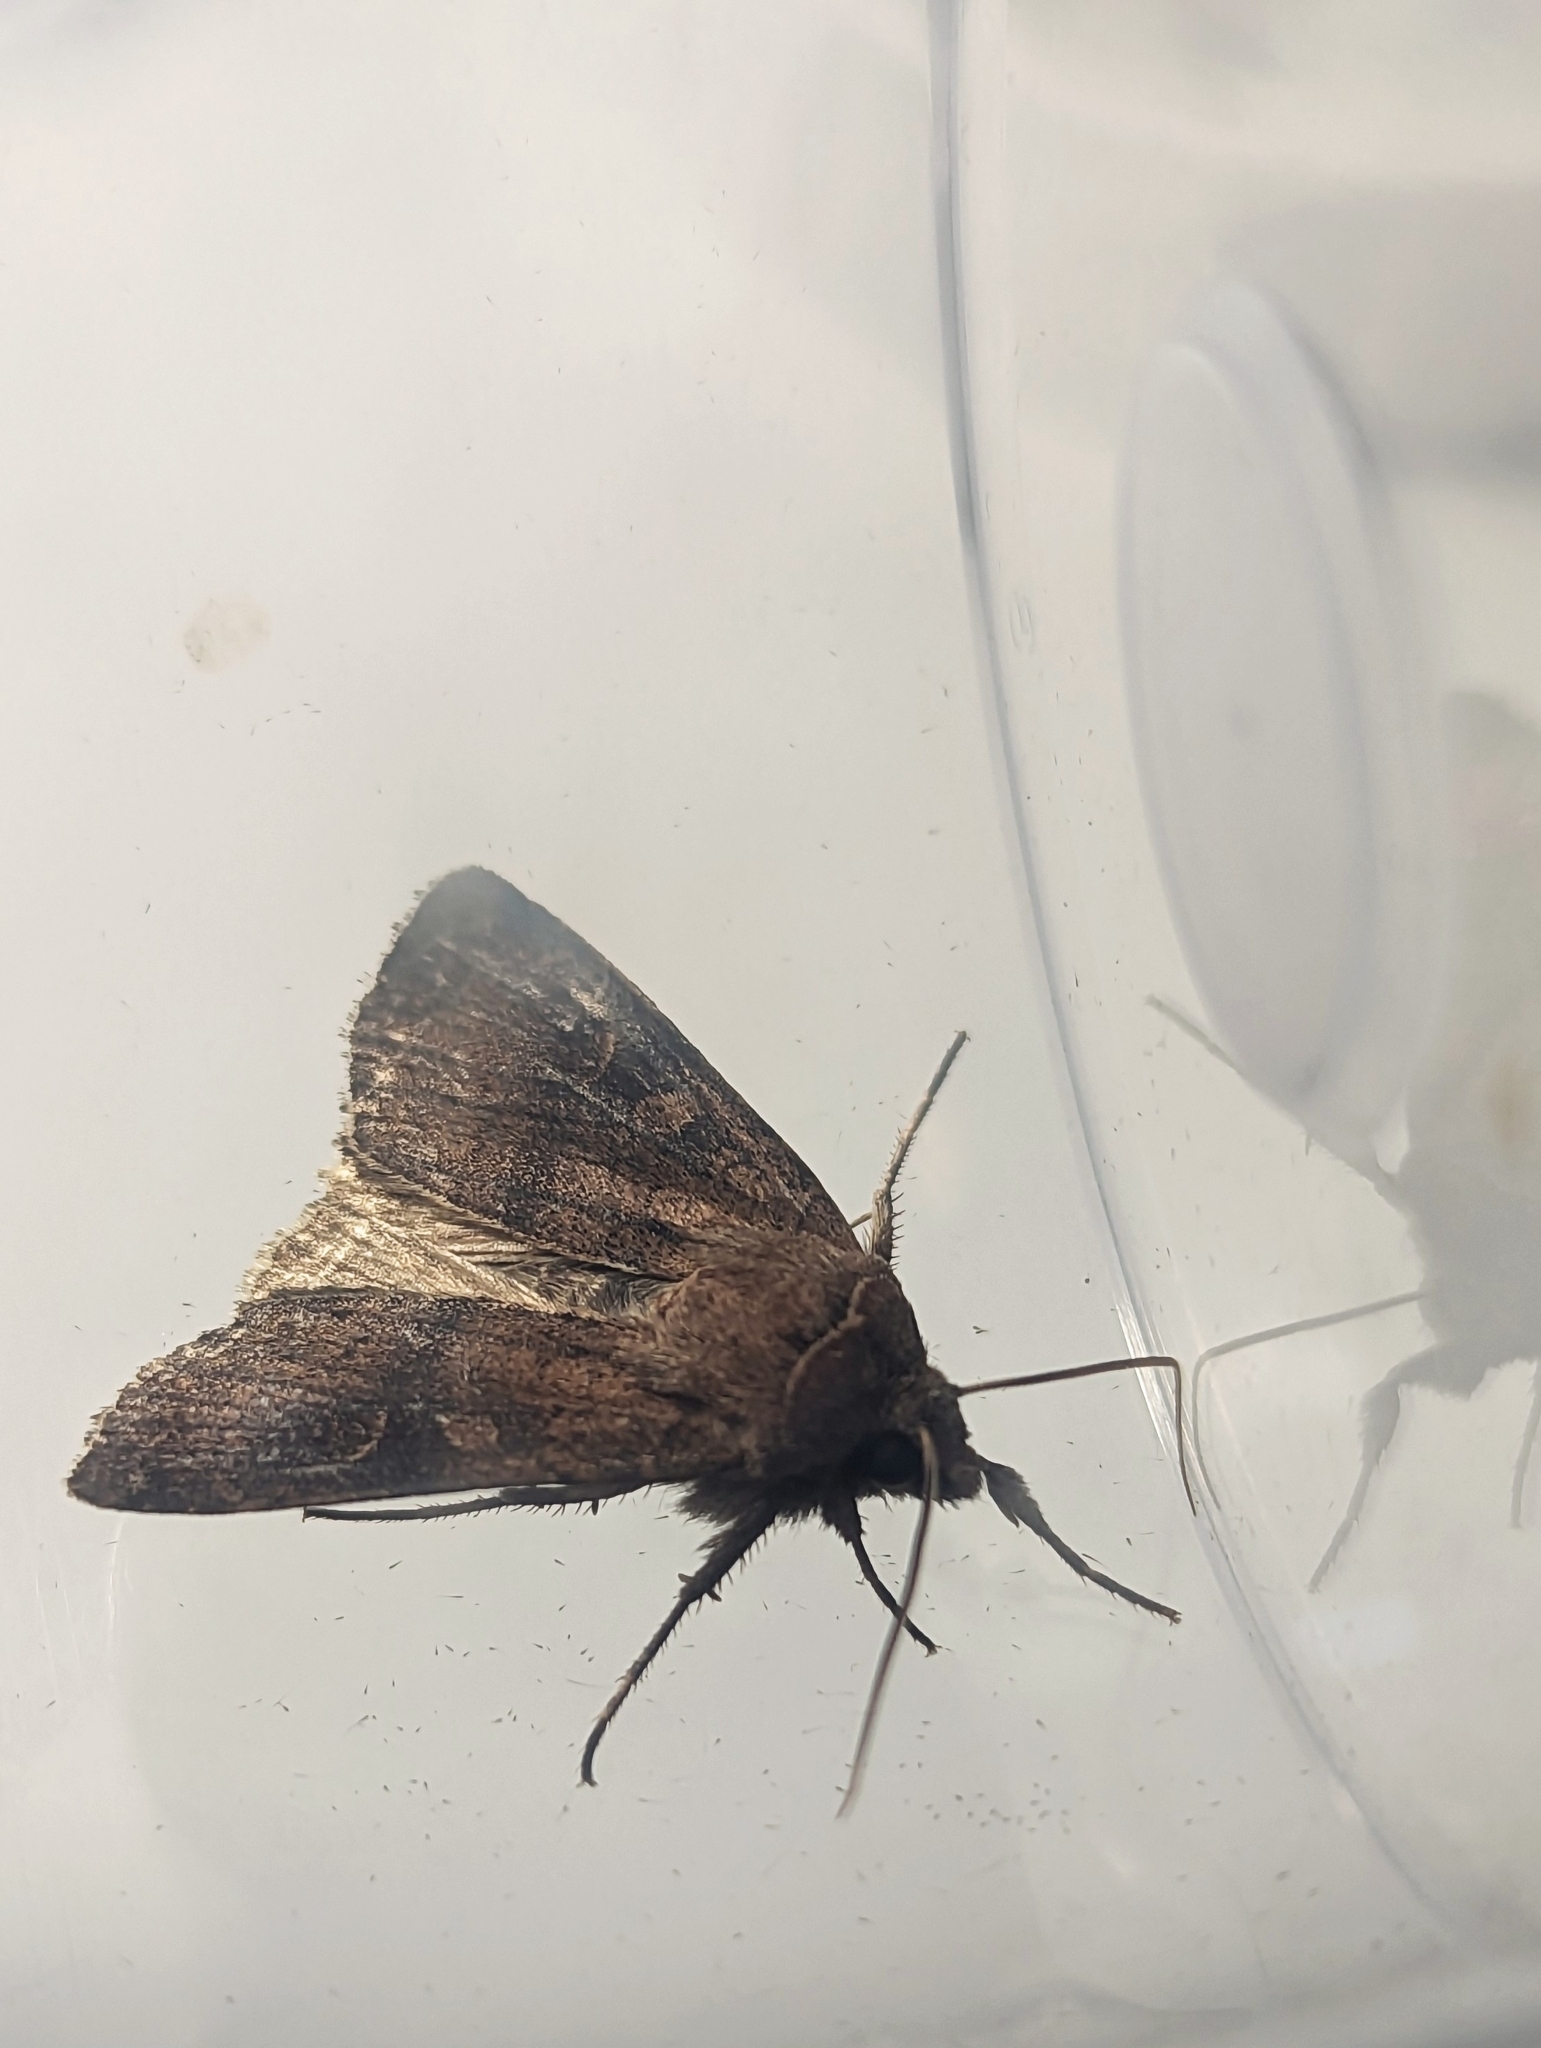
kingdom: Animalia
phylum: Arthropoda
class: Insecta
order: Lepidoptera
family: Noctuidae
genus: Xestia
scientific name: Xestia xanthographa
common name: Square-spot rustic
